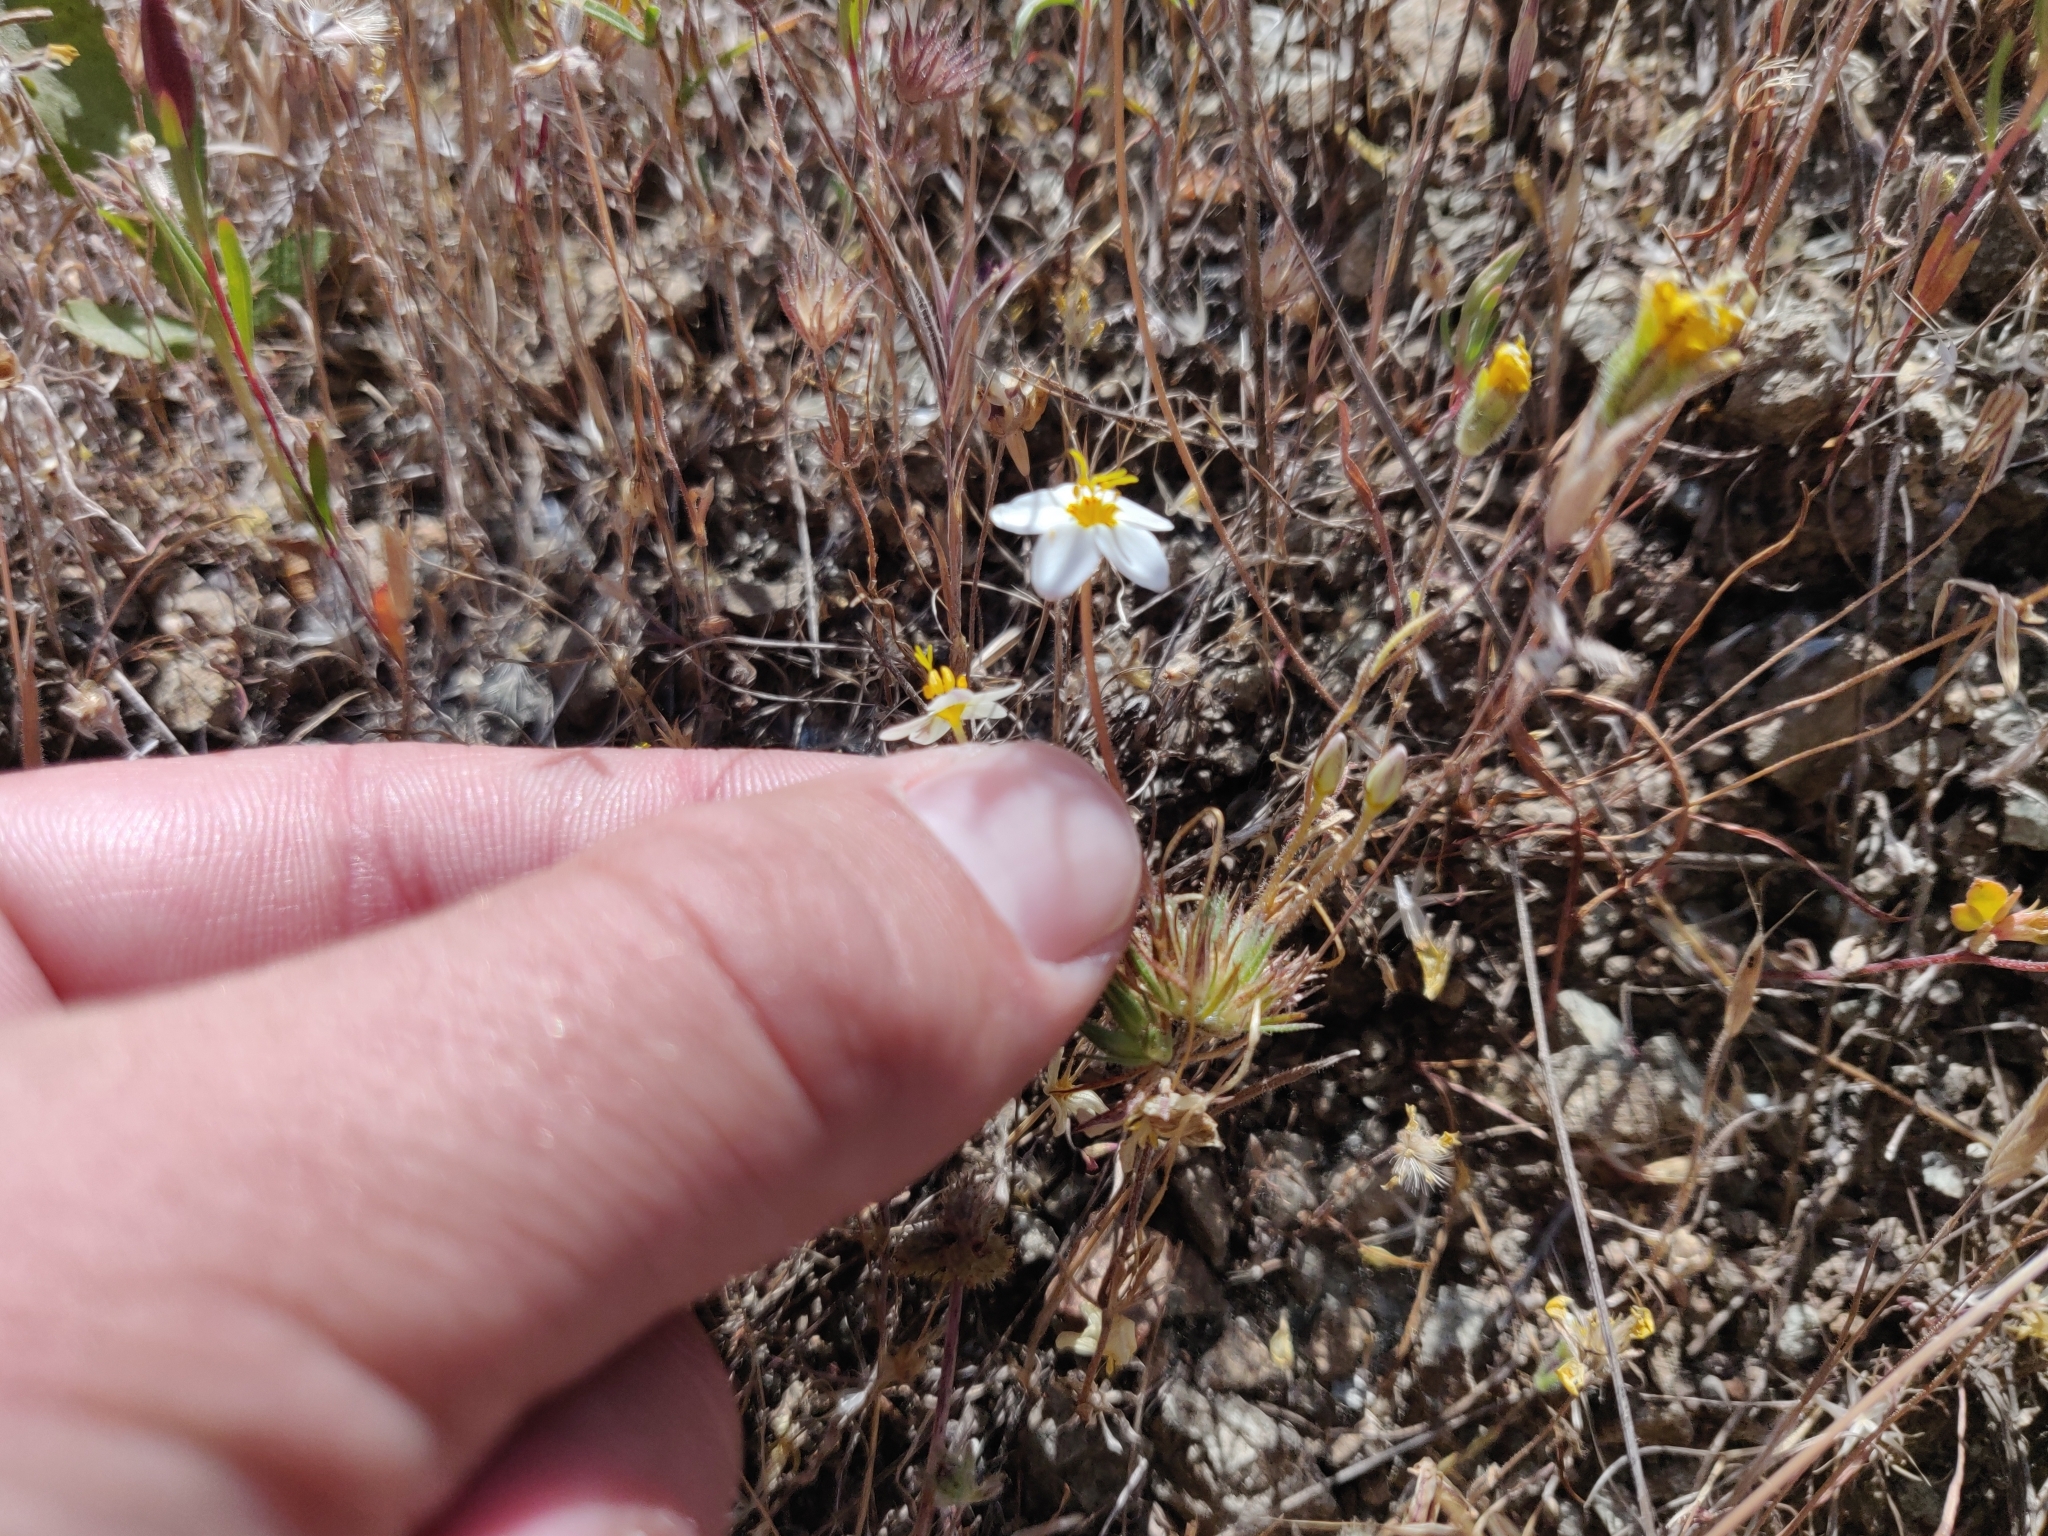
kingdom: Plantae
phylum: Tracheophyta
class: Magnoliopsida
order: Ericales
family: Polemoniaceae
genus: Leptosiphon
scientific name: Leptosiphon parviflorus
